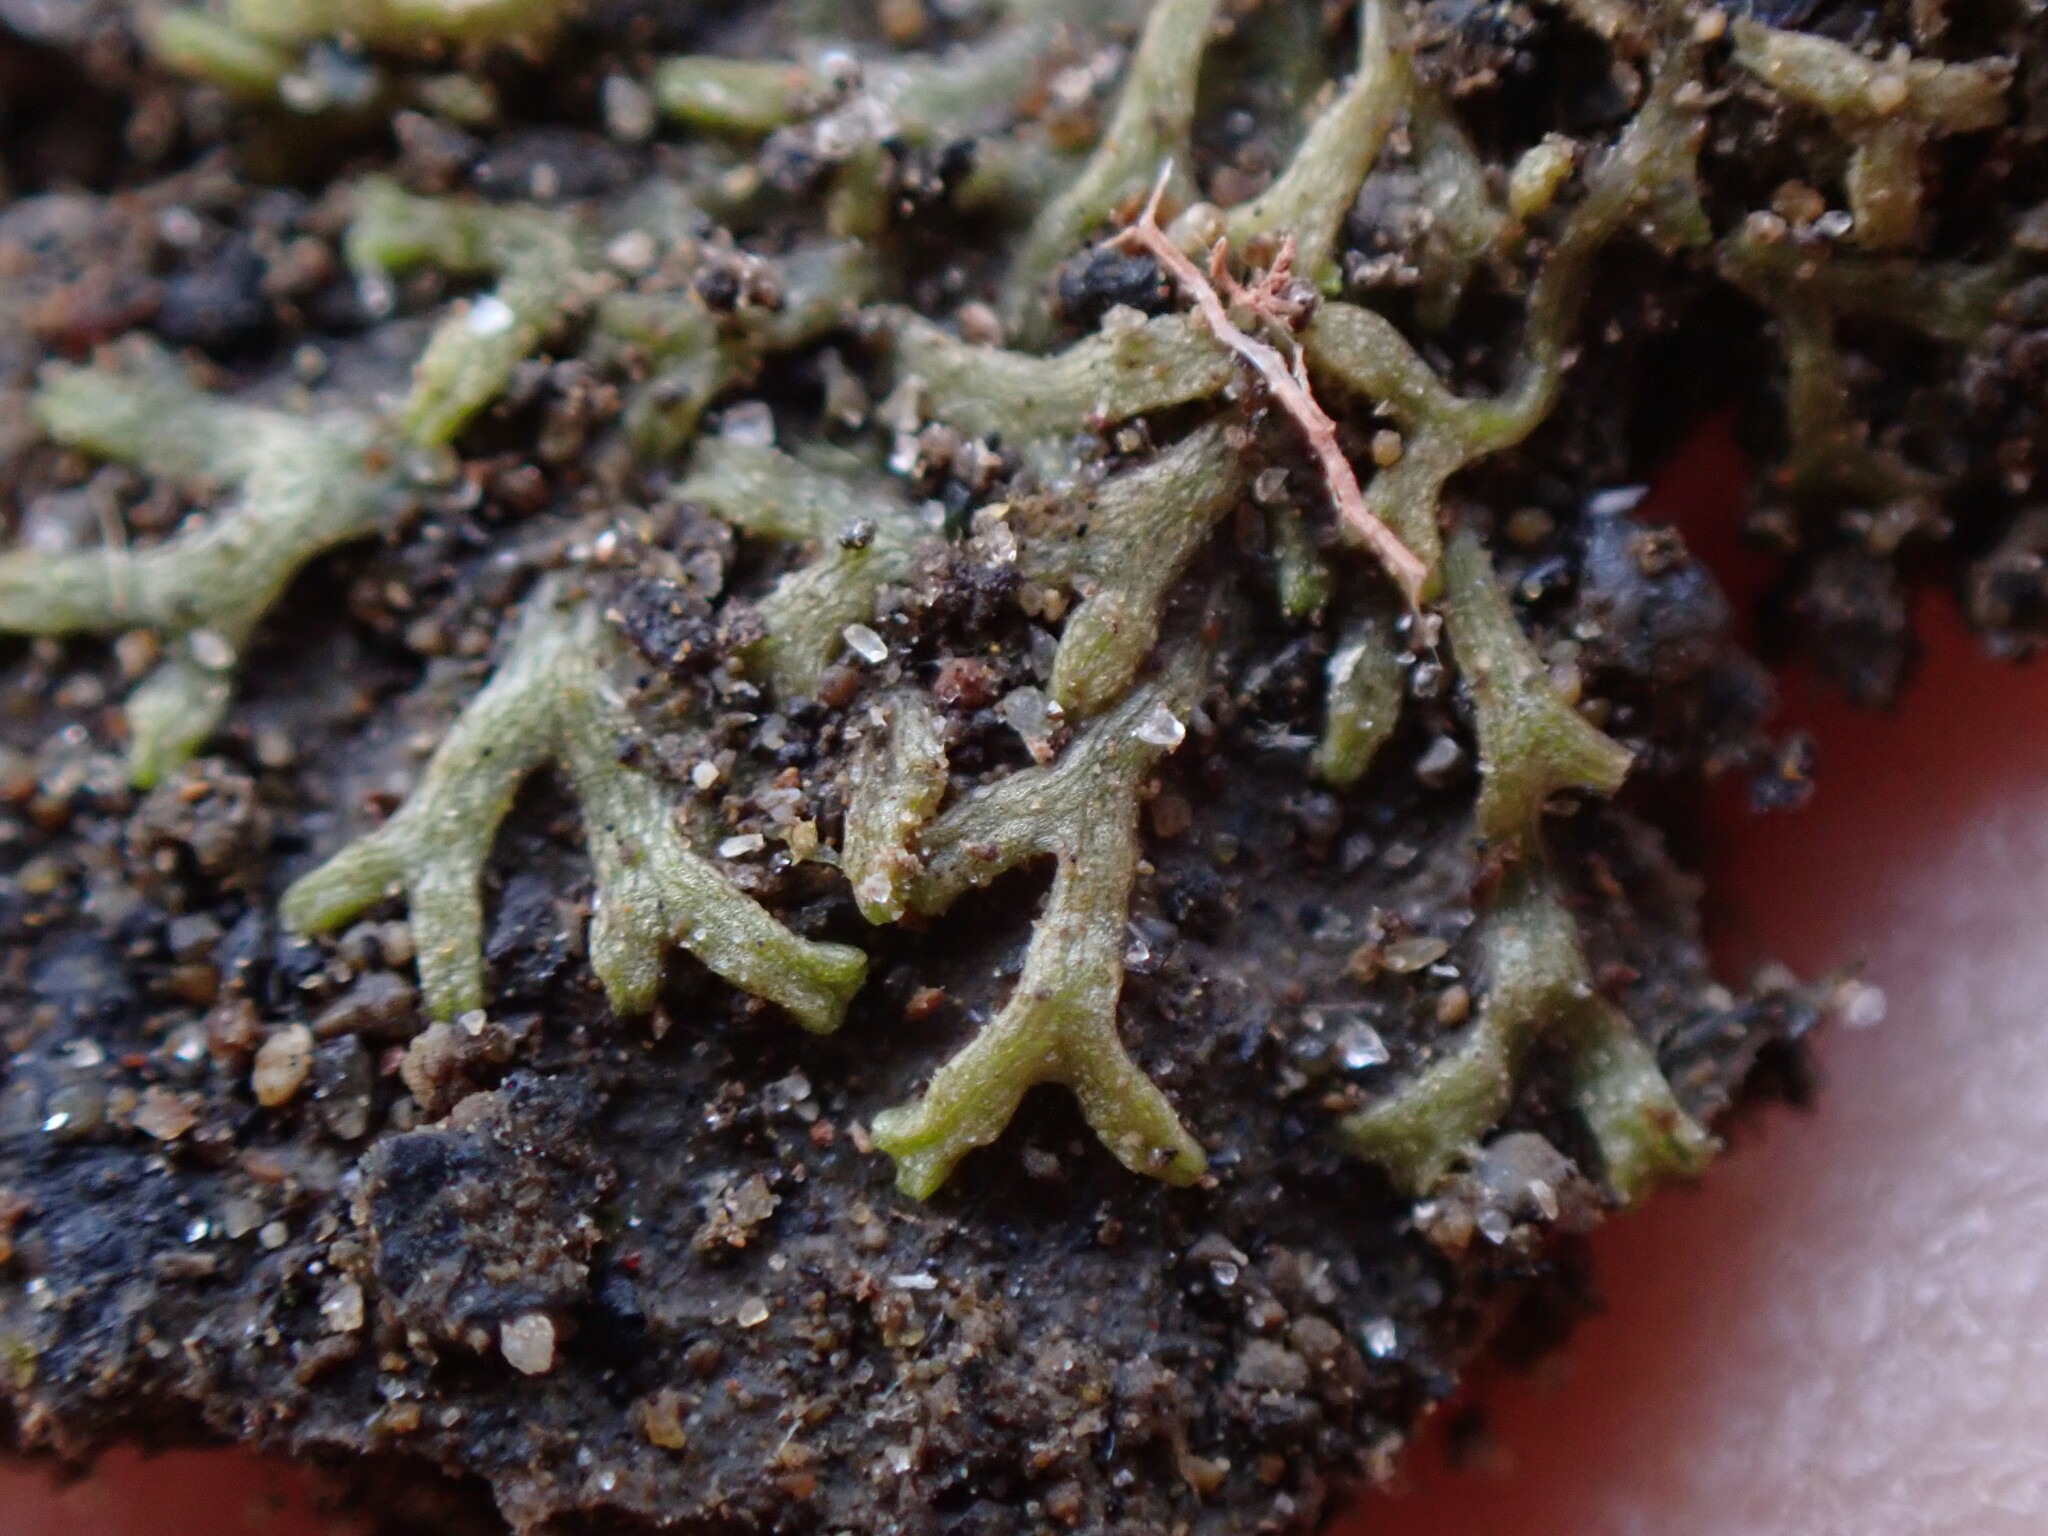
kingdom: Plantae
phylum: Marchantiophyta
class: Marchantiopsida
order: Marchantiales
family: Ricciaceae
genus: Riccia
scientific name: Riccia fluitans
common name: Floating crystalwort
